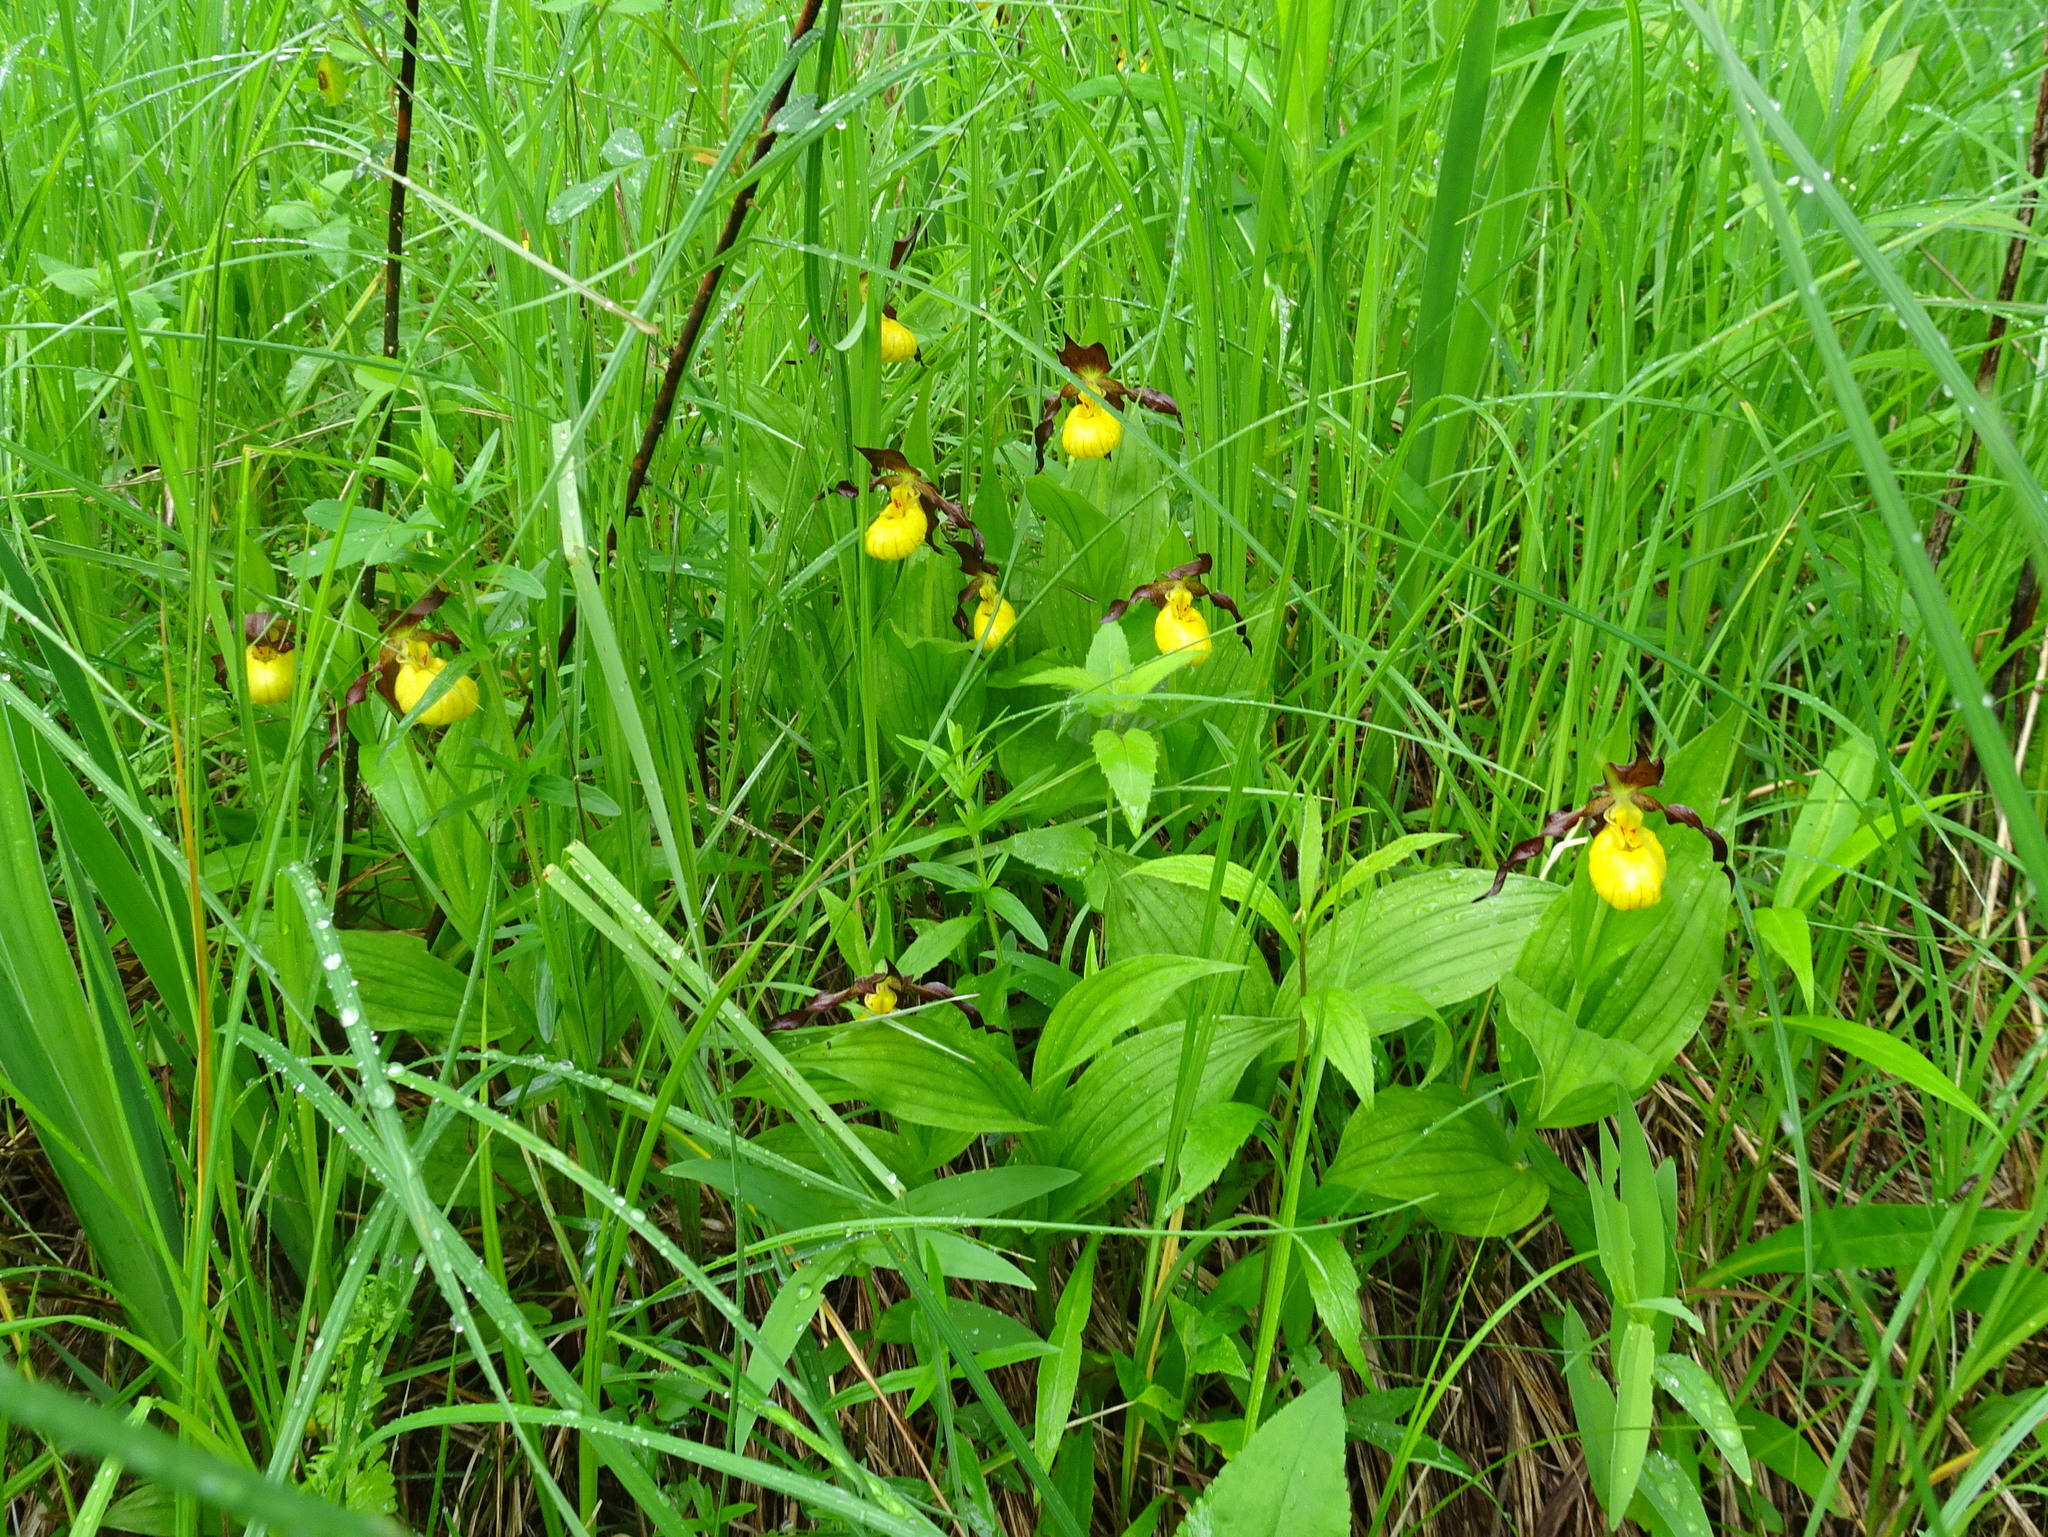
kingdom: Plantae
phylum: Tracheophyta
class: Liliopsida
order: Asparagales
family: Orchidaceae
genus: Cypripedium
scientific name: Cypripedium parviflorum
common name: American yellow lady's-slipper
